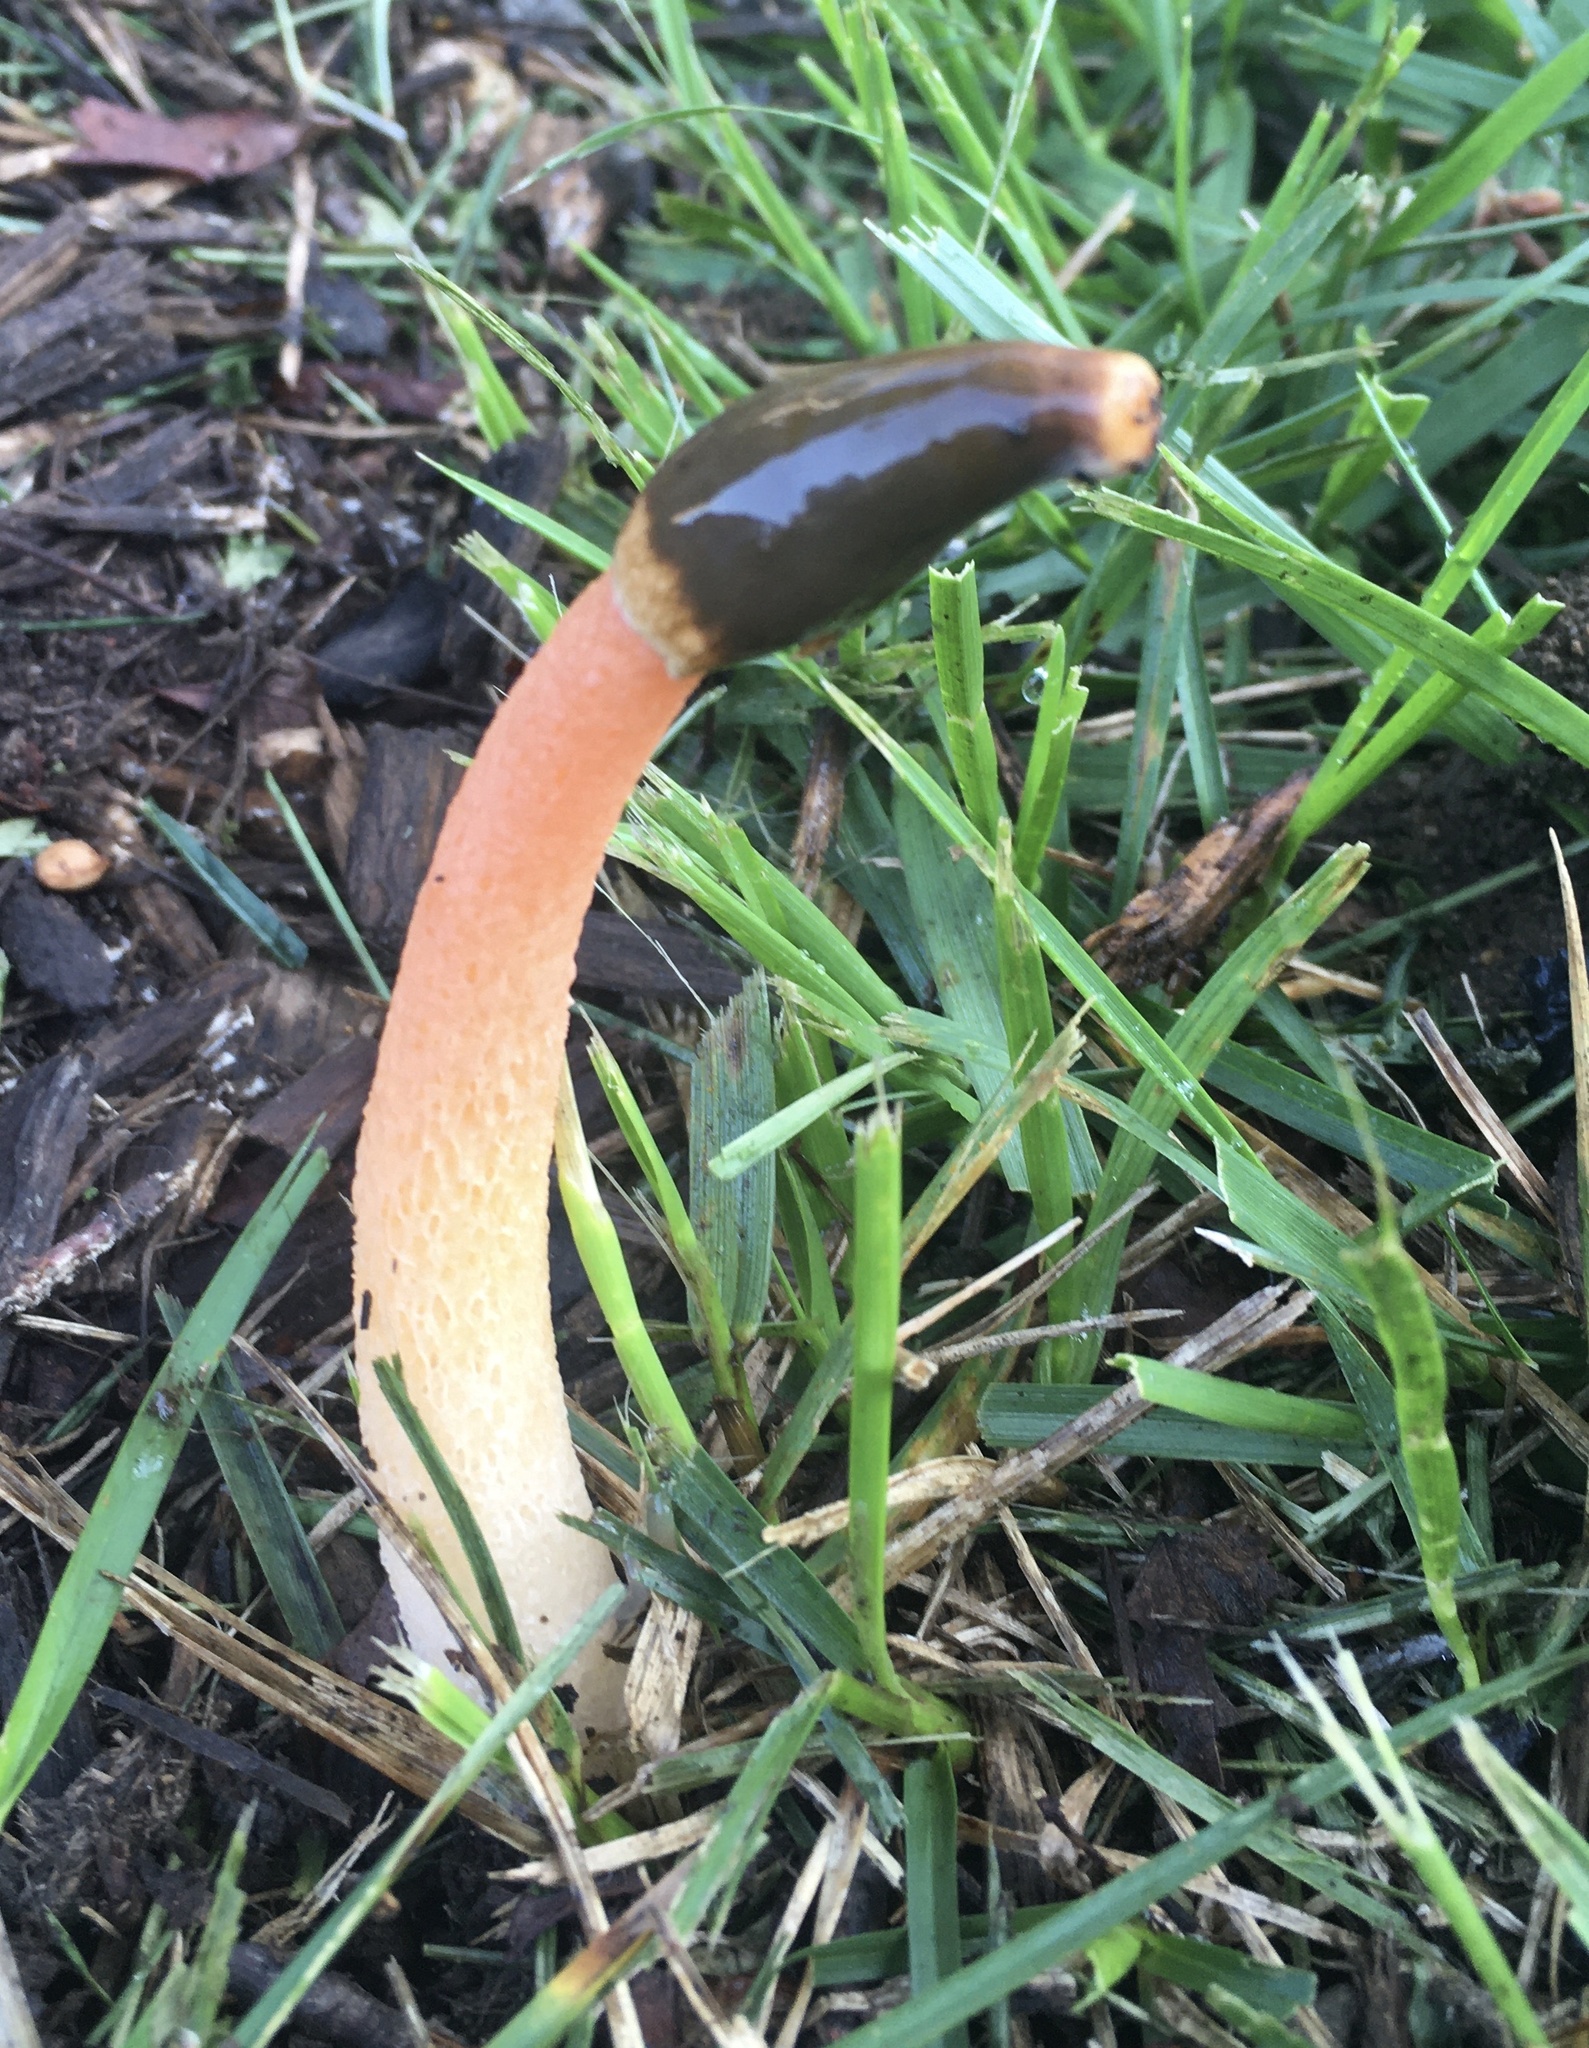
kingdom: Fungi
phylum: Basidiomycota
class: Agaricomycetes
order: Phallales
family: Phallaceae
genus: Phallus
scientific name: Phallus rugulosus
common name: Wrinkly stinkhorn
